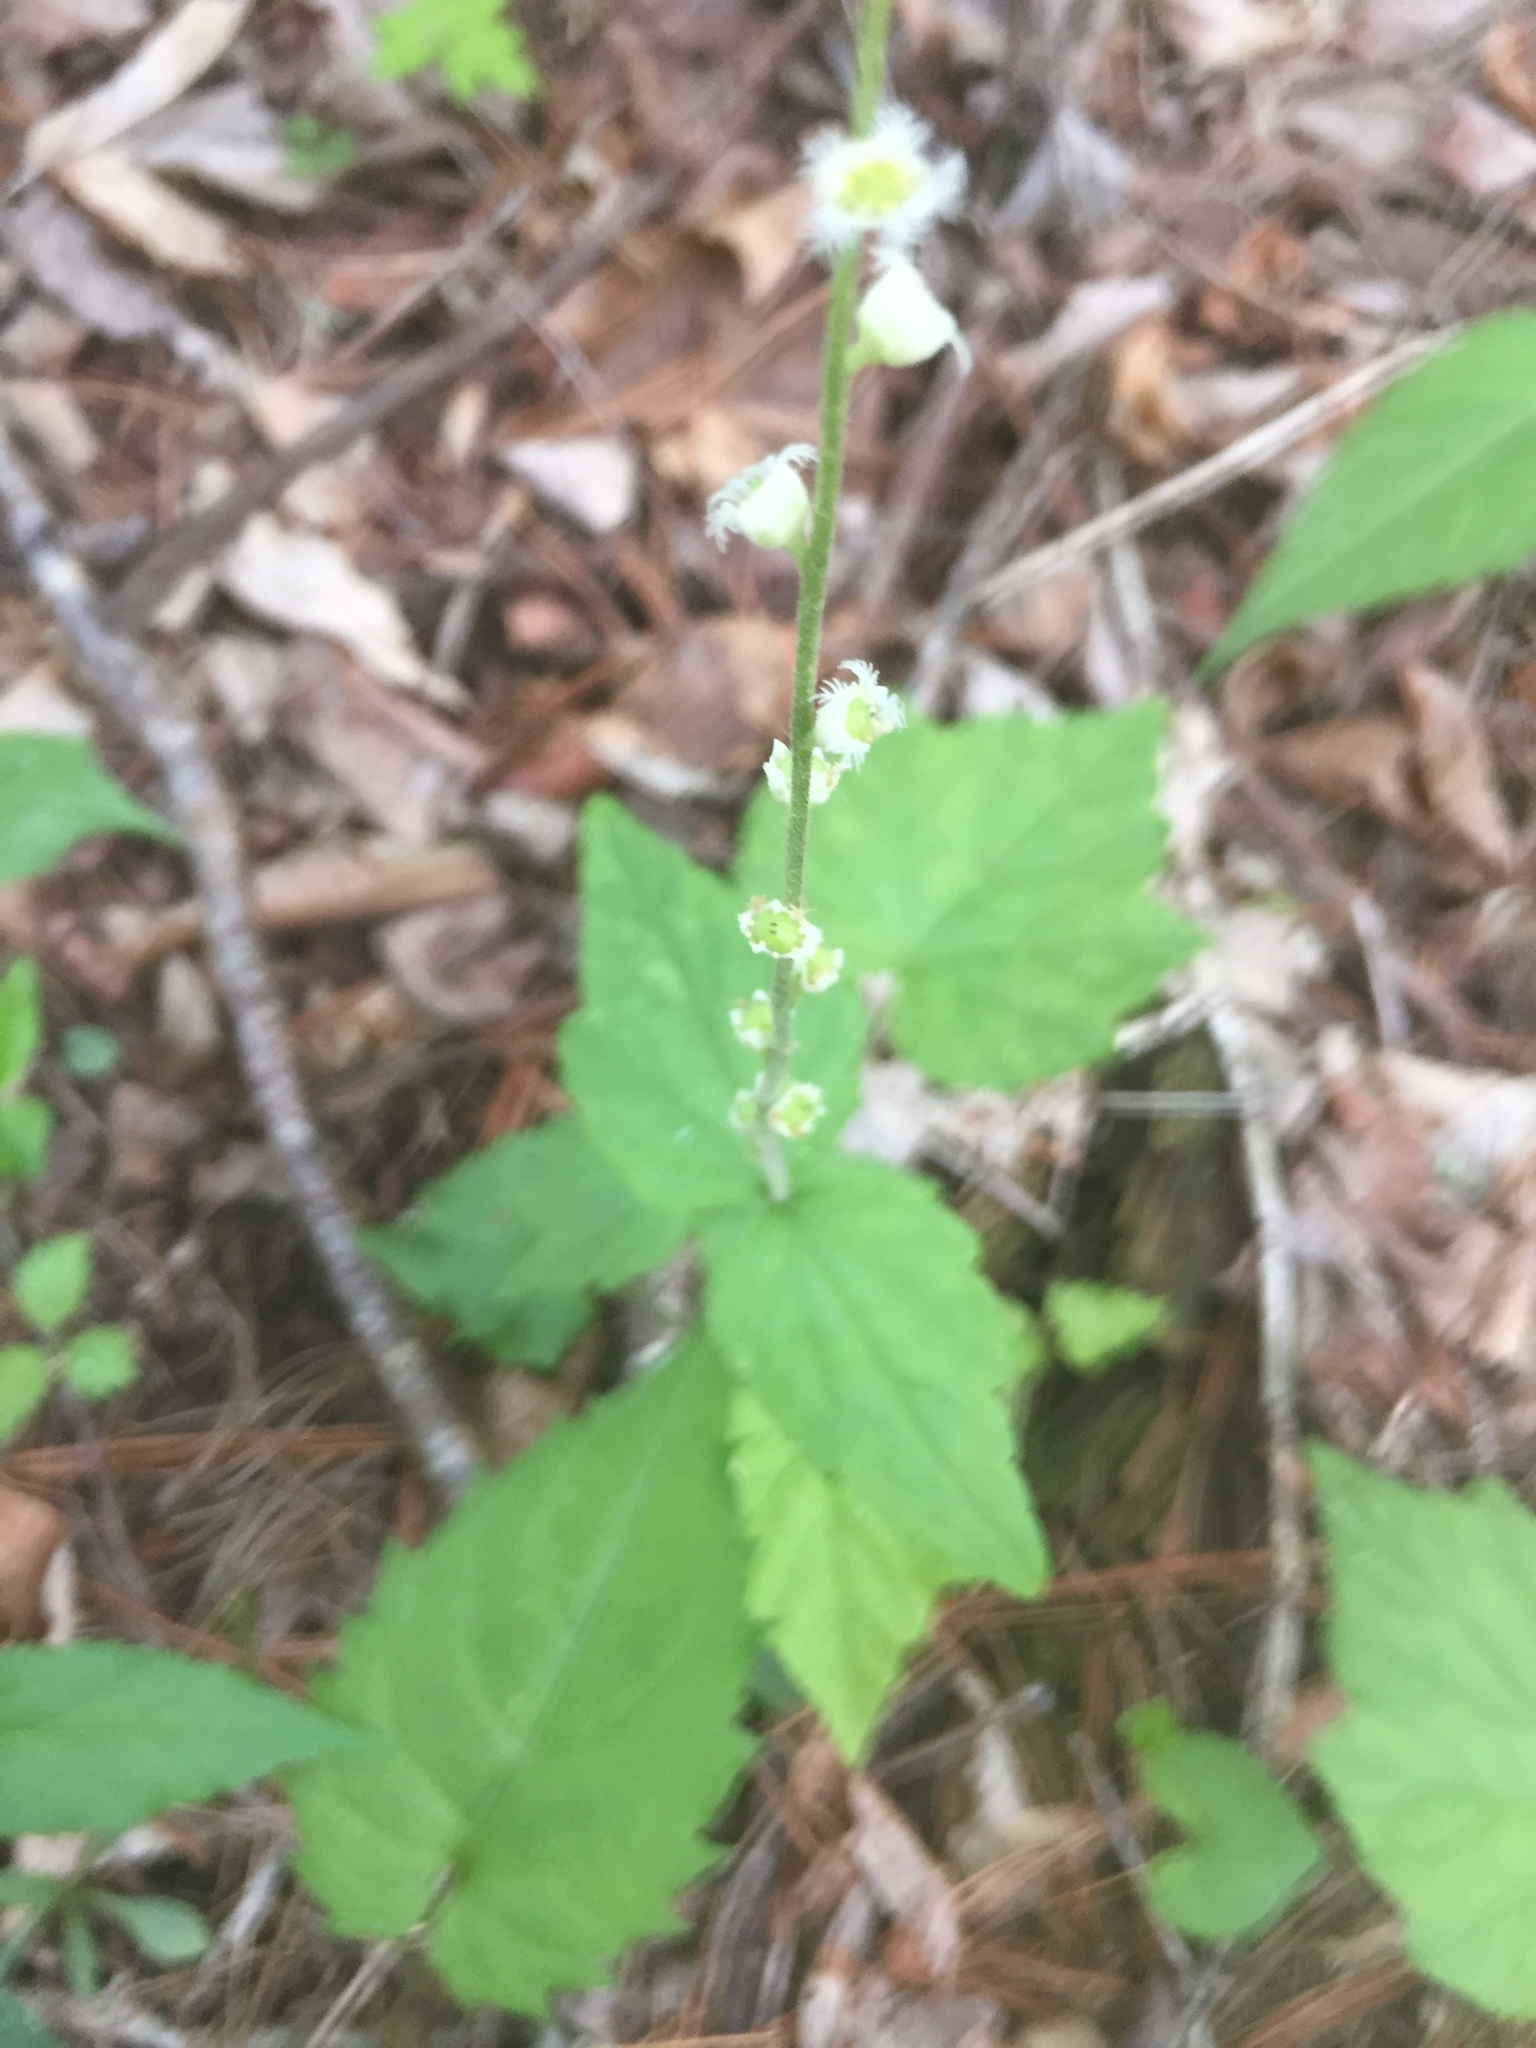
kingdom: Plantae
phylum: Tracheophyta
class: Magnoliopsida
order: Saxifragales
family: Saxifragaceae
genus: Mitella
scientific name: Mitella diphylla
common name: Coolwort
